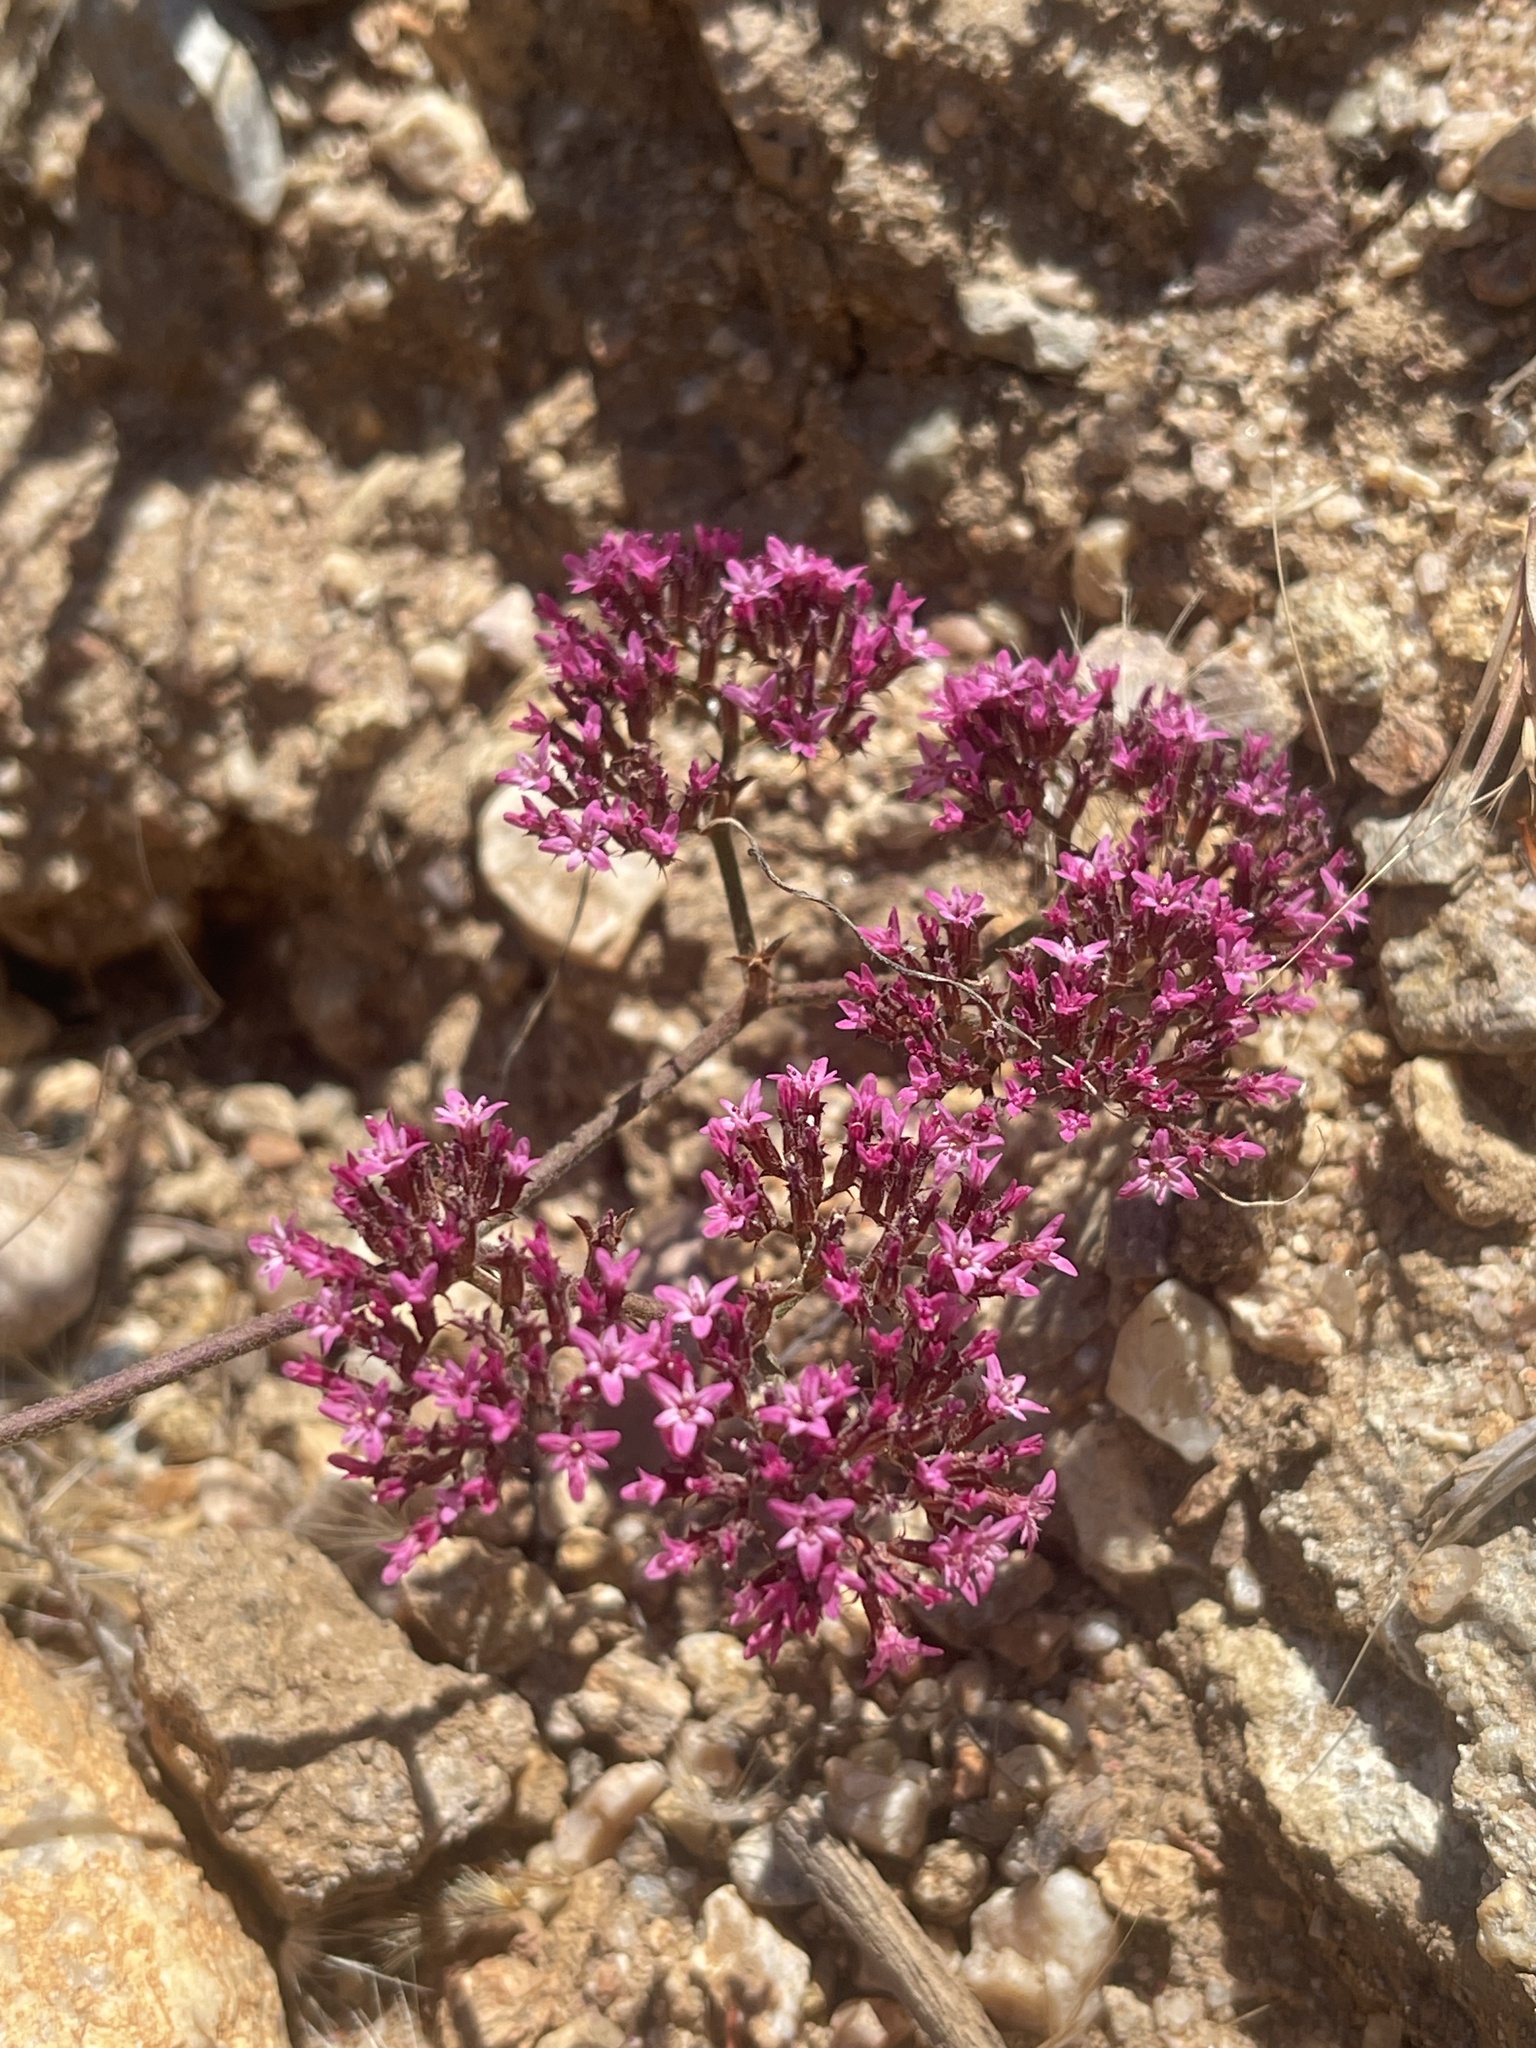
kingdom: Plantae
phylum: Tracheophyta
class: Magnoliopsida
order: Caryophyllales
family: Polygonaceae
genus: Chorizanthe
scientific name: Chorizanthe staticoides
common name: Turkish rugging
